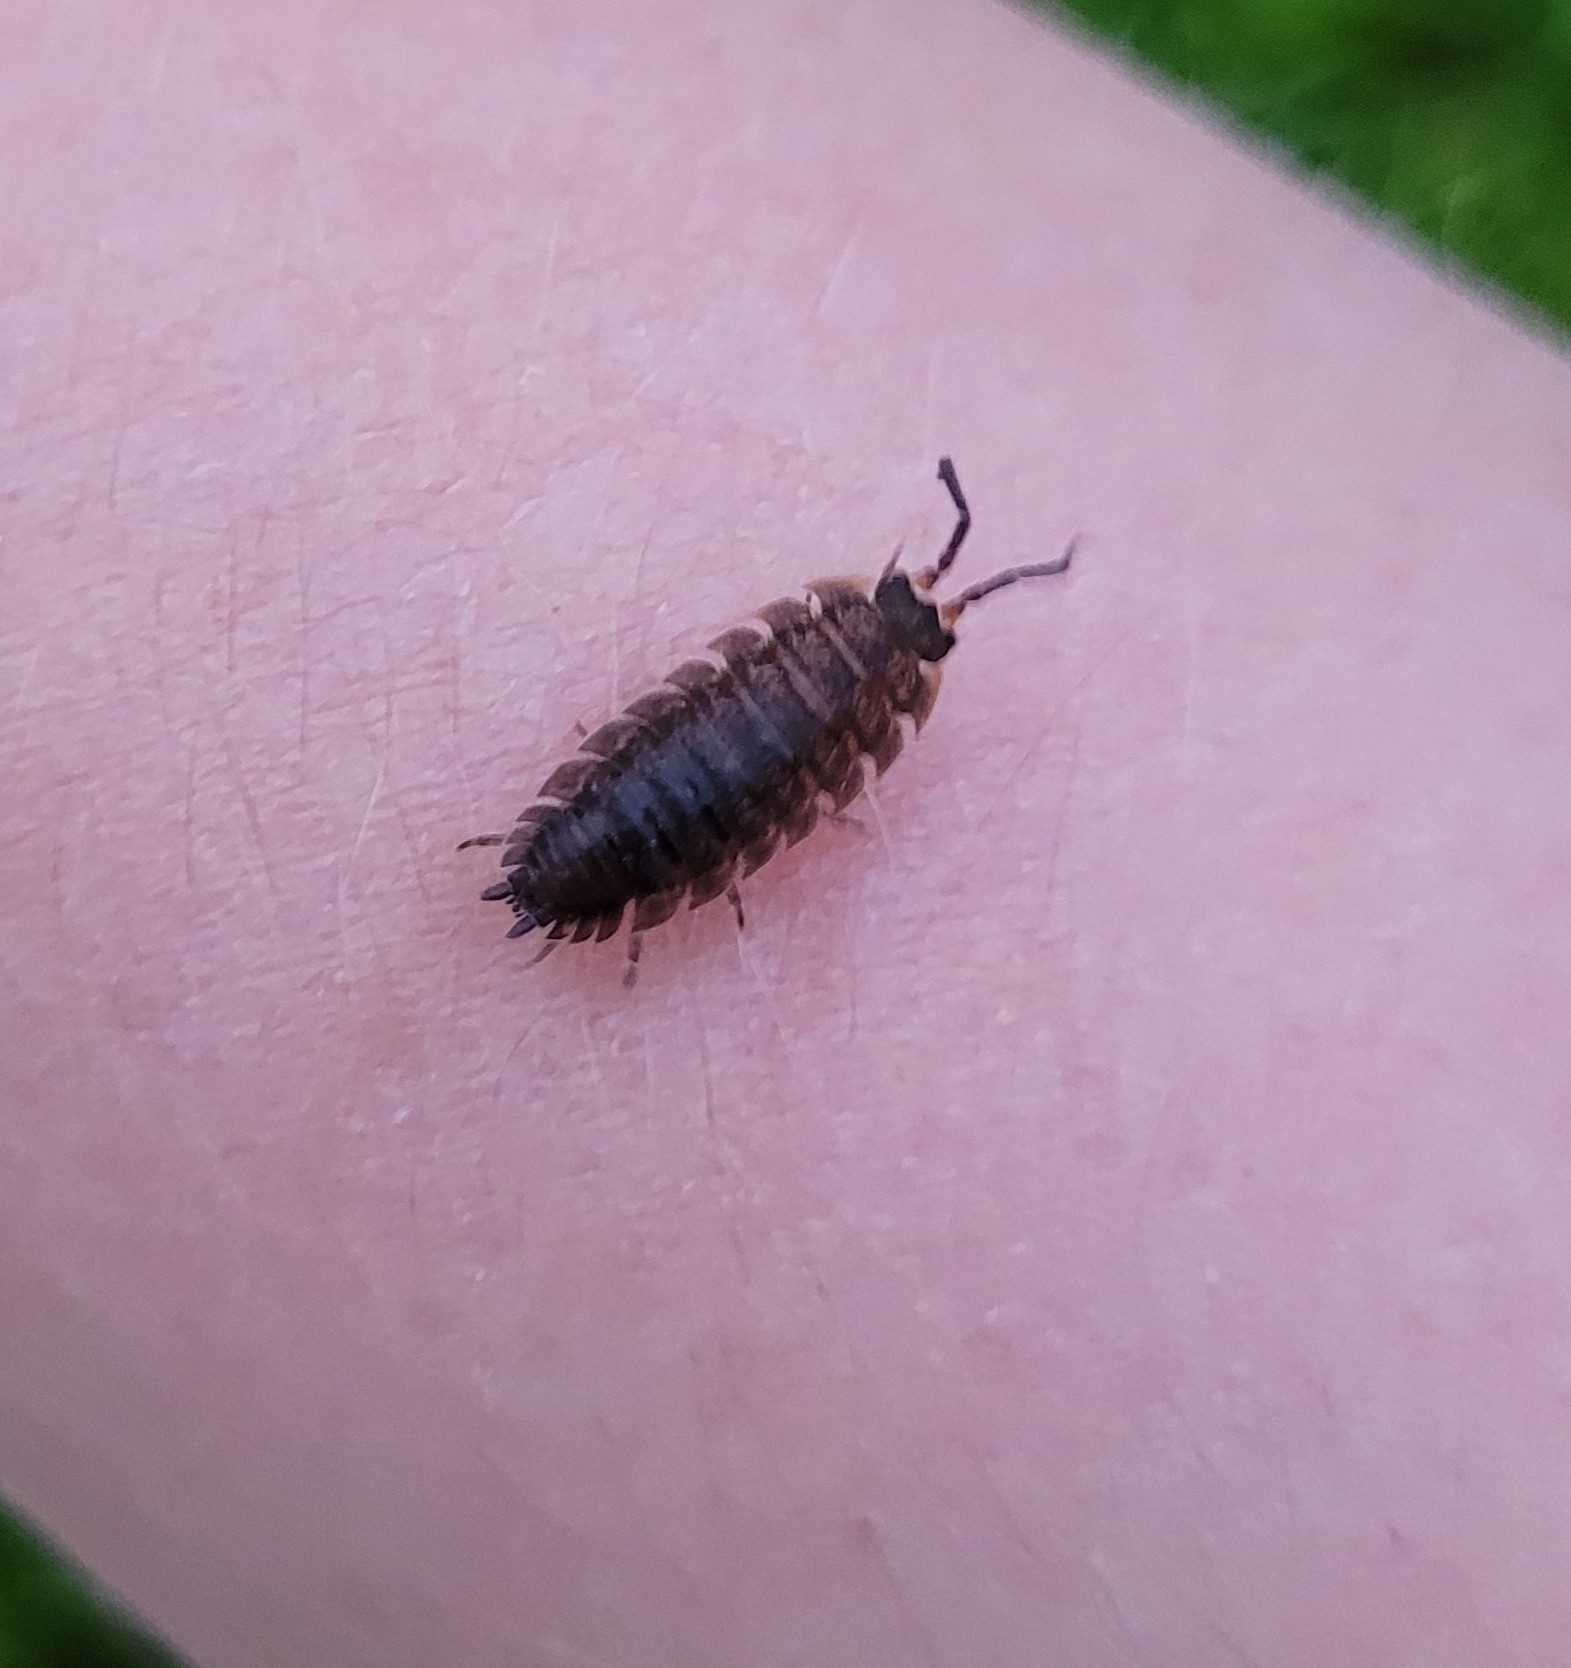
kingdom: Animalia
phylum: Arthropoda
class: Malacostraca
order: Isopoda
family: Porcellionidae
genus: Porcellio
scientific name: Porcellio scaber
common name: Common rough woodlouse
